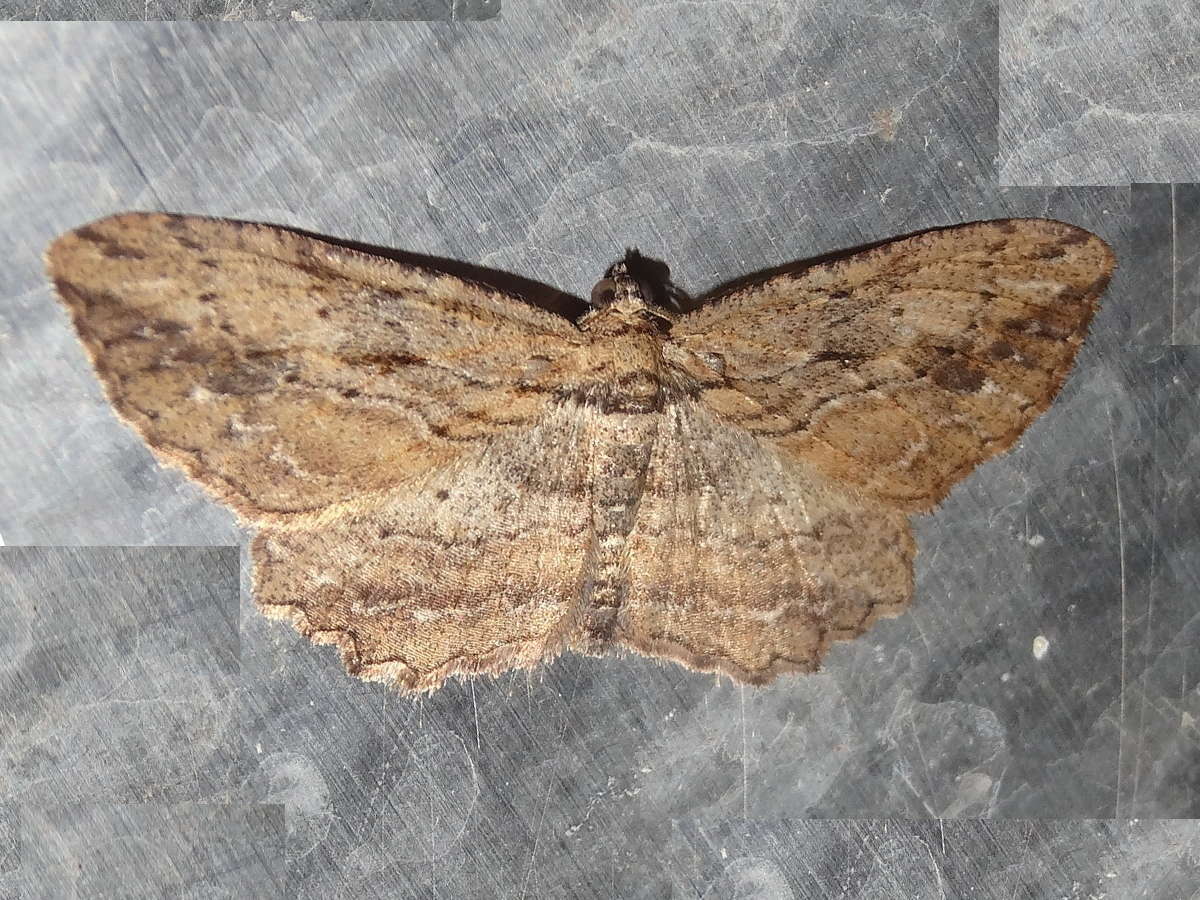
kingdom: Animalia
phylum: Arthropoda
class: Insecta
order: Lepidoptera
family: Geometridae
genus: Ectropis
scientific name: Ectropis lignea
